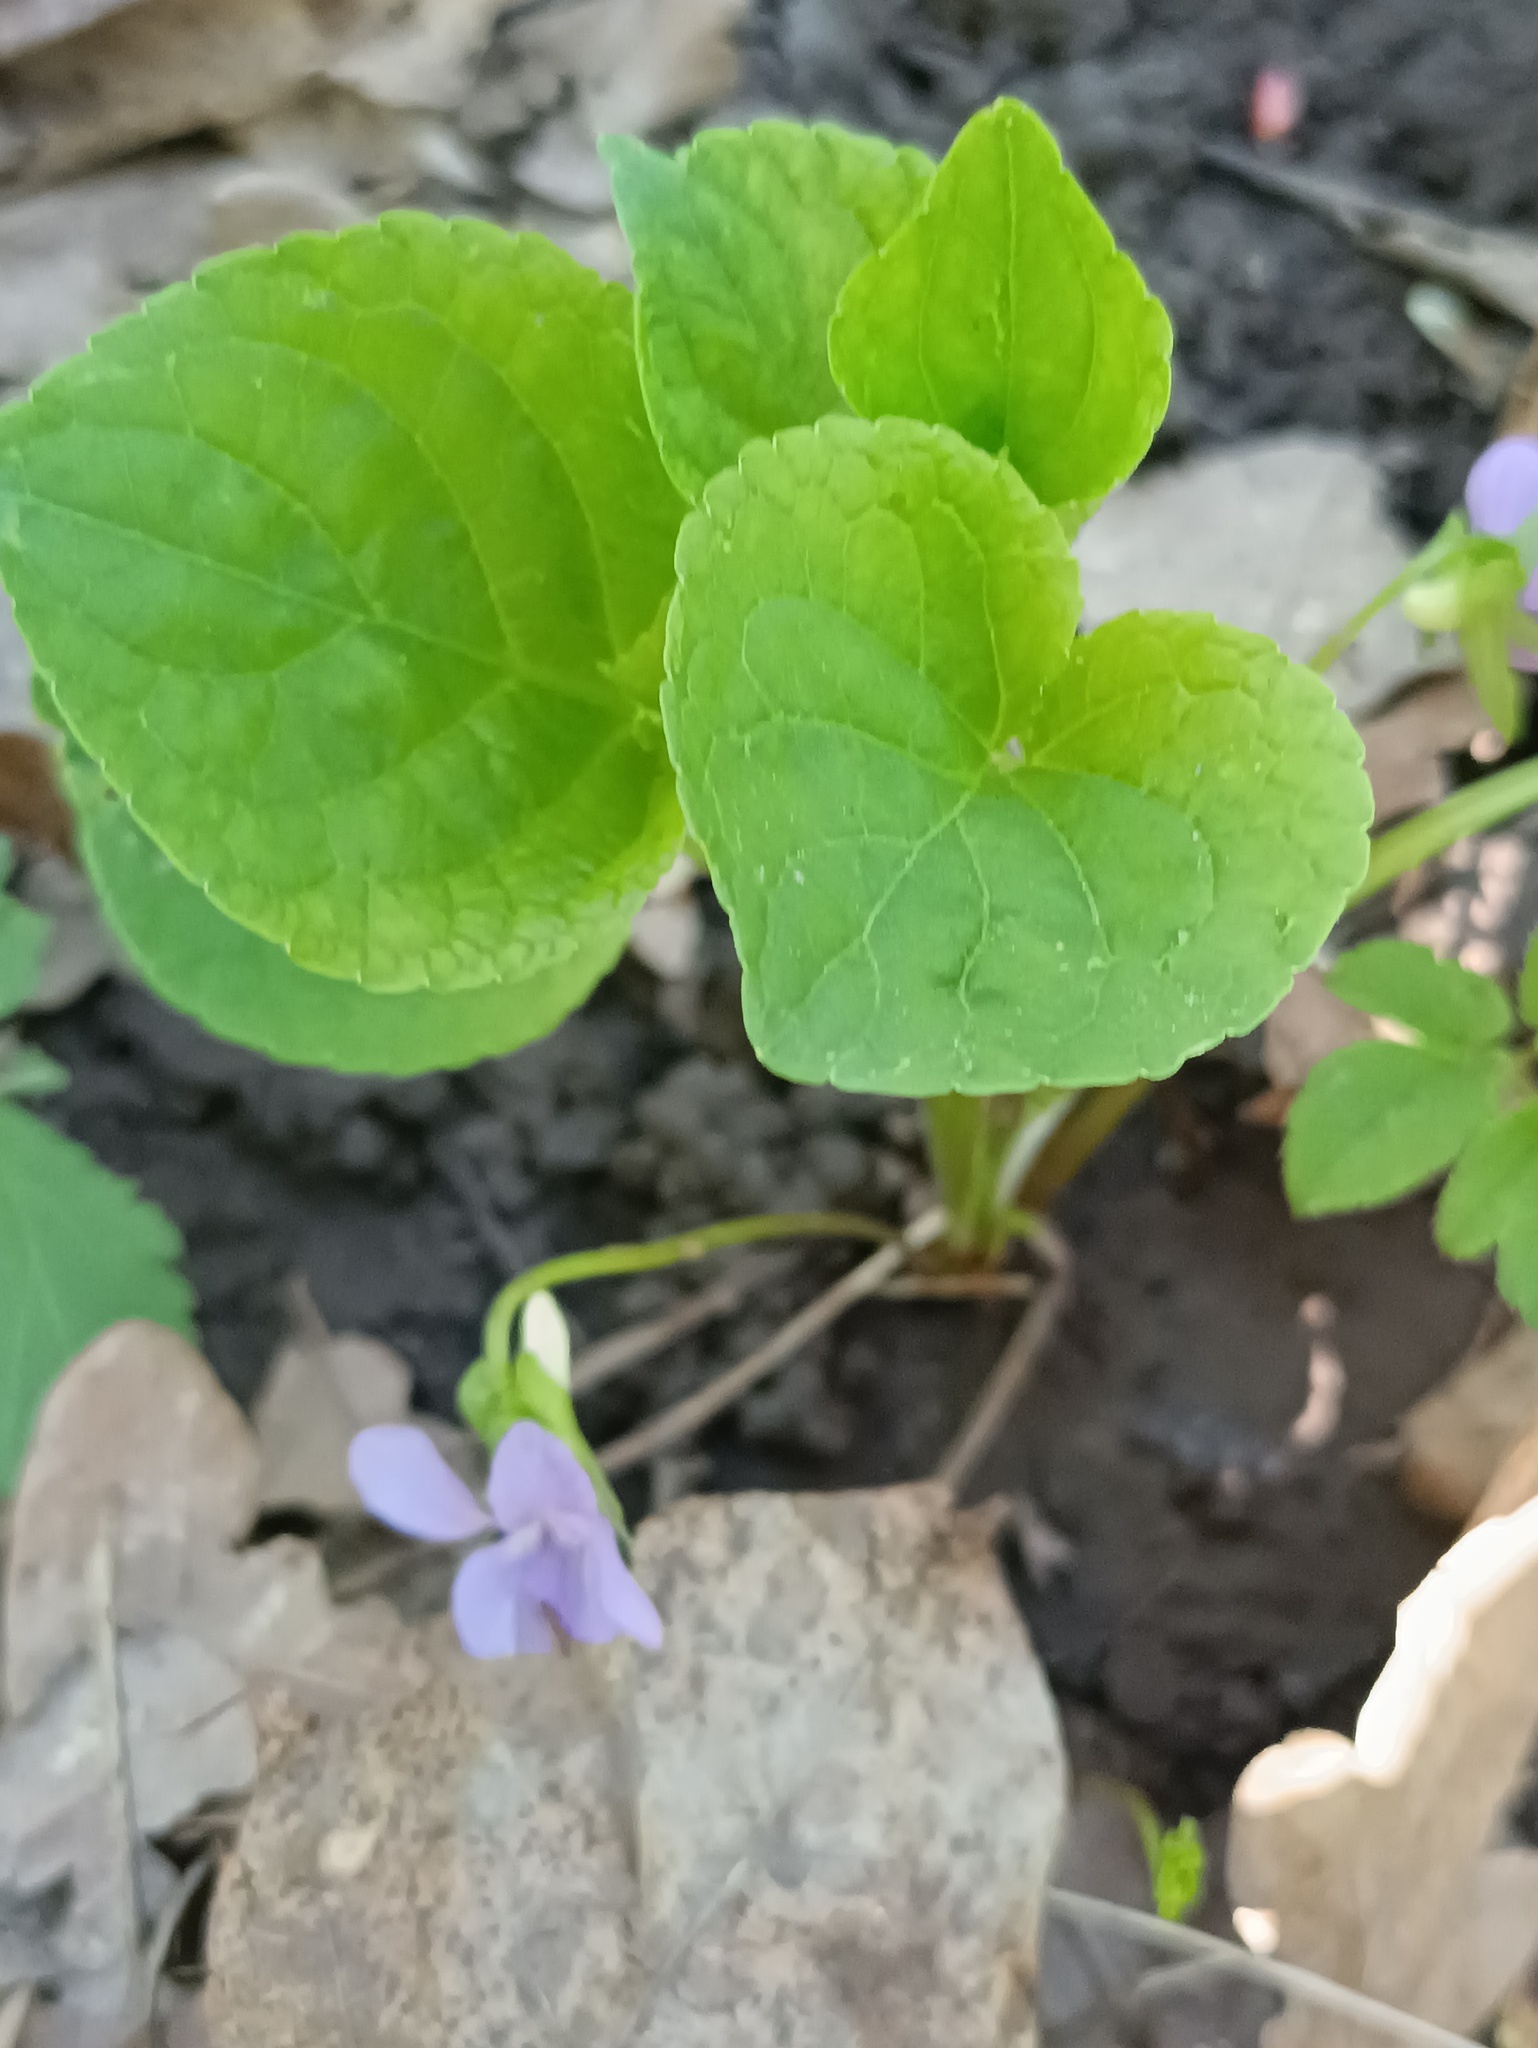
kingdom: Plantae
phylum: Tracheophyta
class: Magnoliopsida
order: Malpighiales
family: Violaceae
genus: Viola
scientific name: Viola mirabilis
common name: Wonder violet
